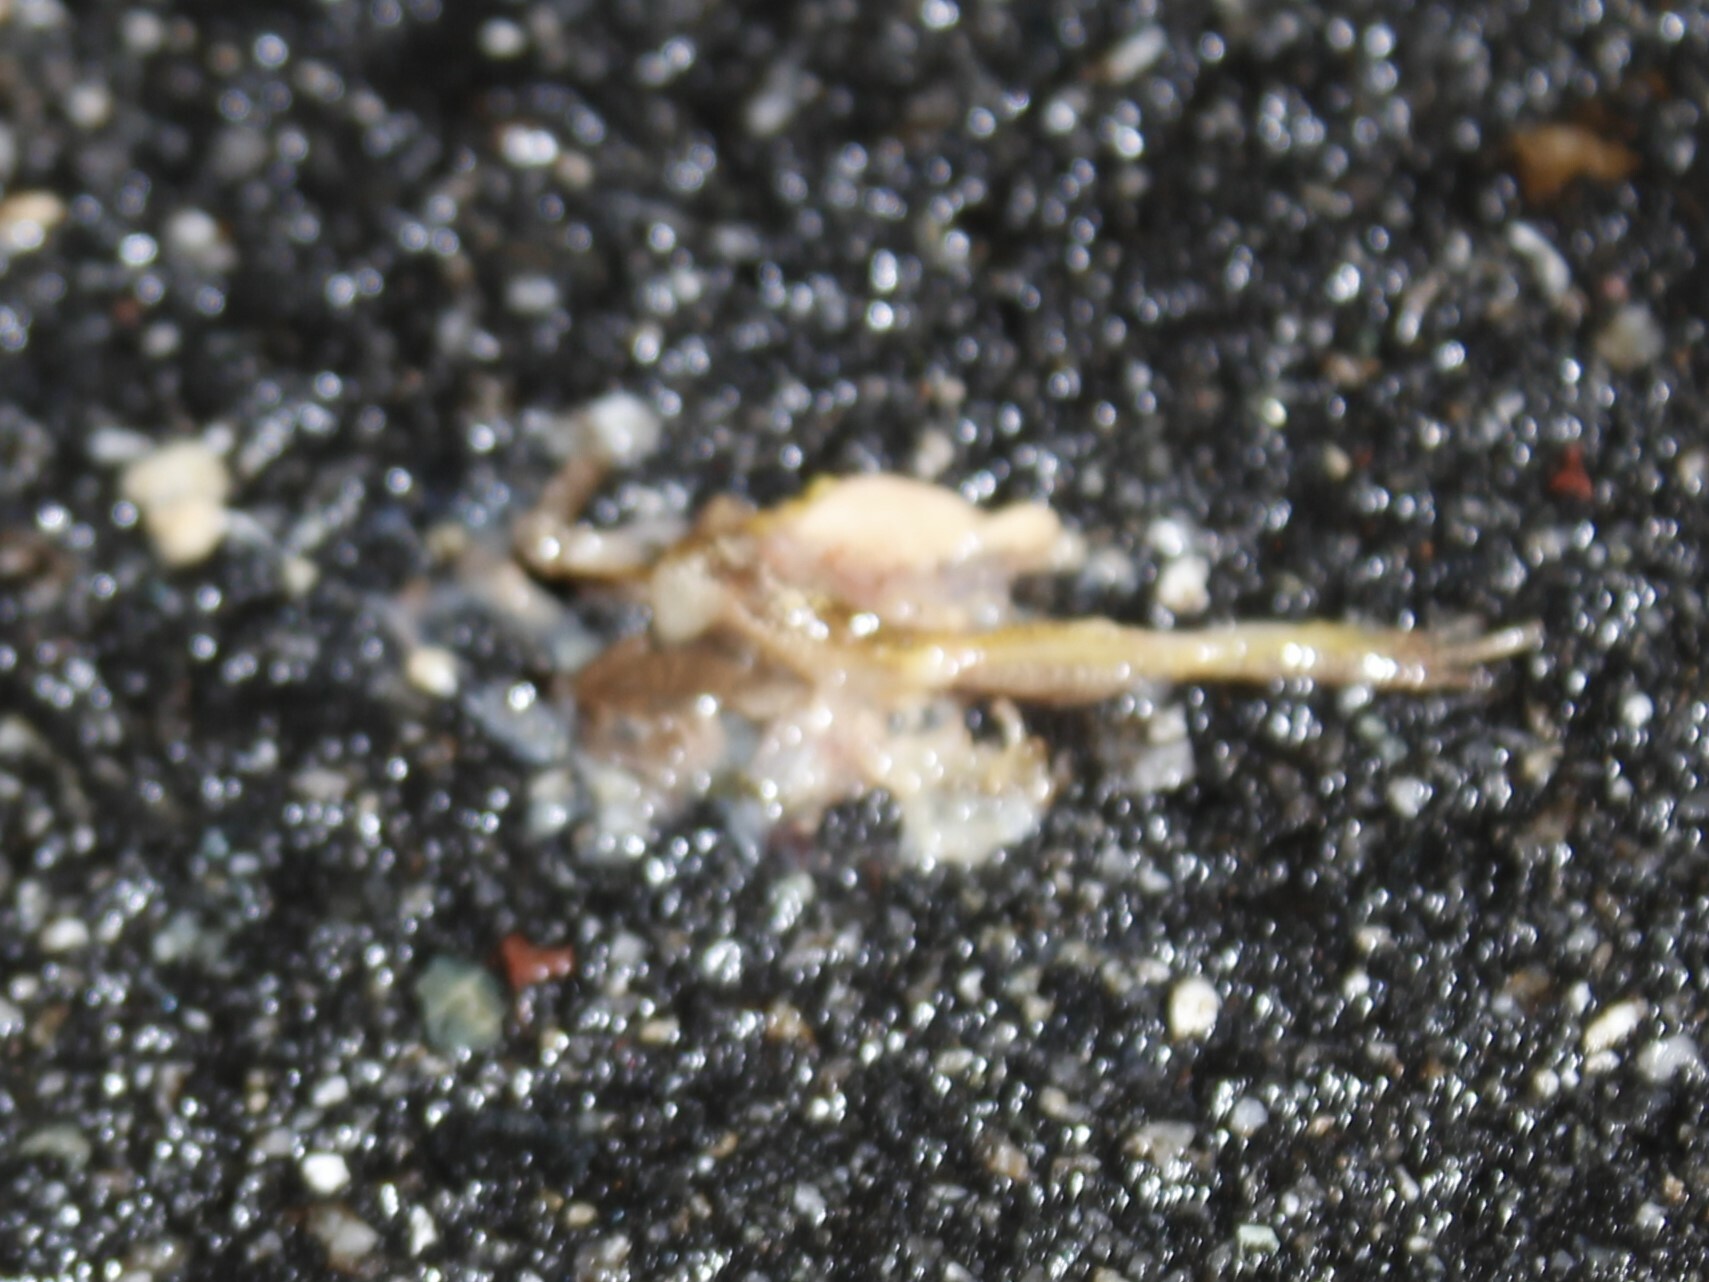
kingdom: Animalia
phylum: Chordata
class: Amphibia
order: Anura
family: Hylidae
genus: Pseudacris
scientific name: Pseudacris crucifer
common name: Spring peeper
